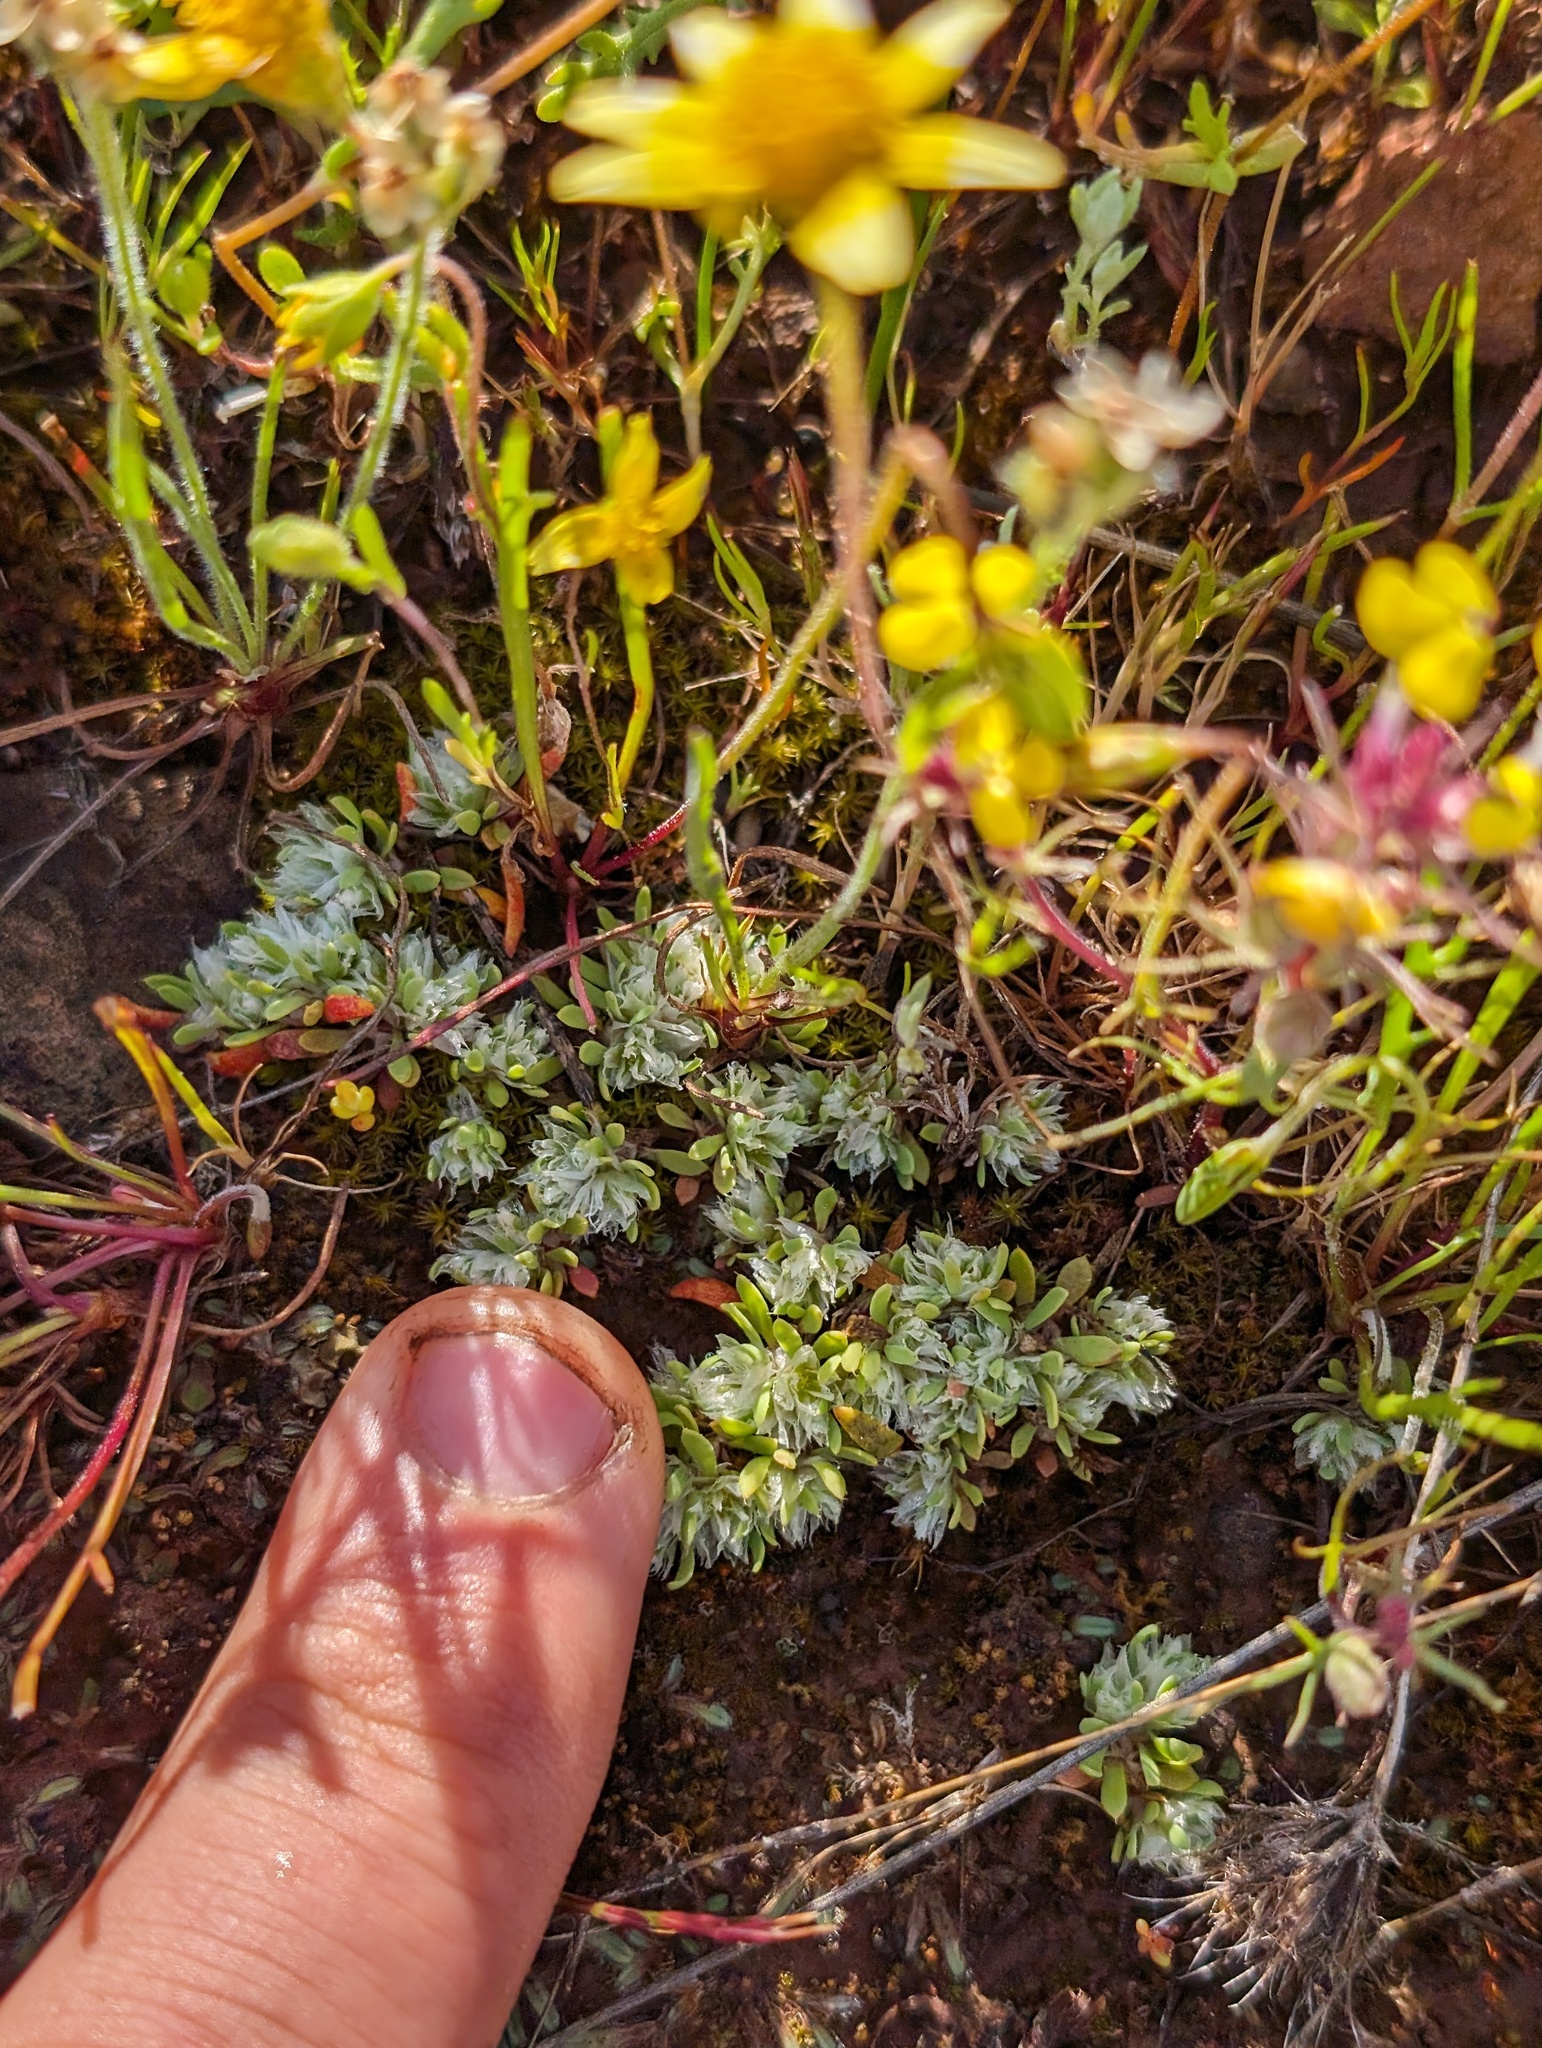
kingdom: Plantae
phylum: Tracheophyta
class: Magnoliopsida
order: Caryophyllales
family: Caryophyllaceae
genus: Paronychia
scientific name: Paronychia ahartii
